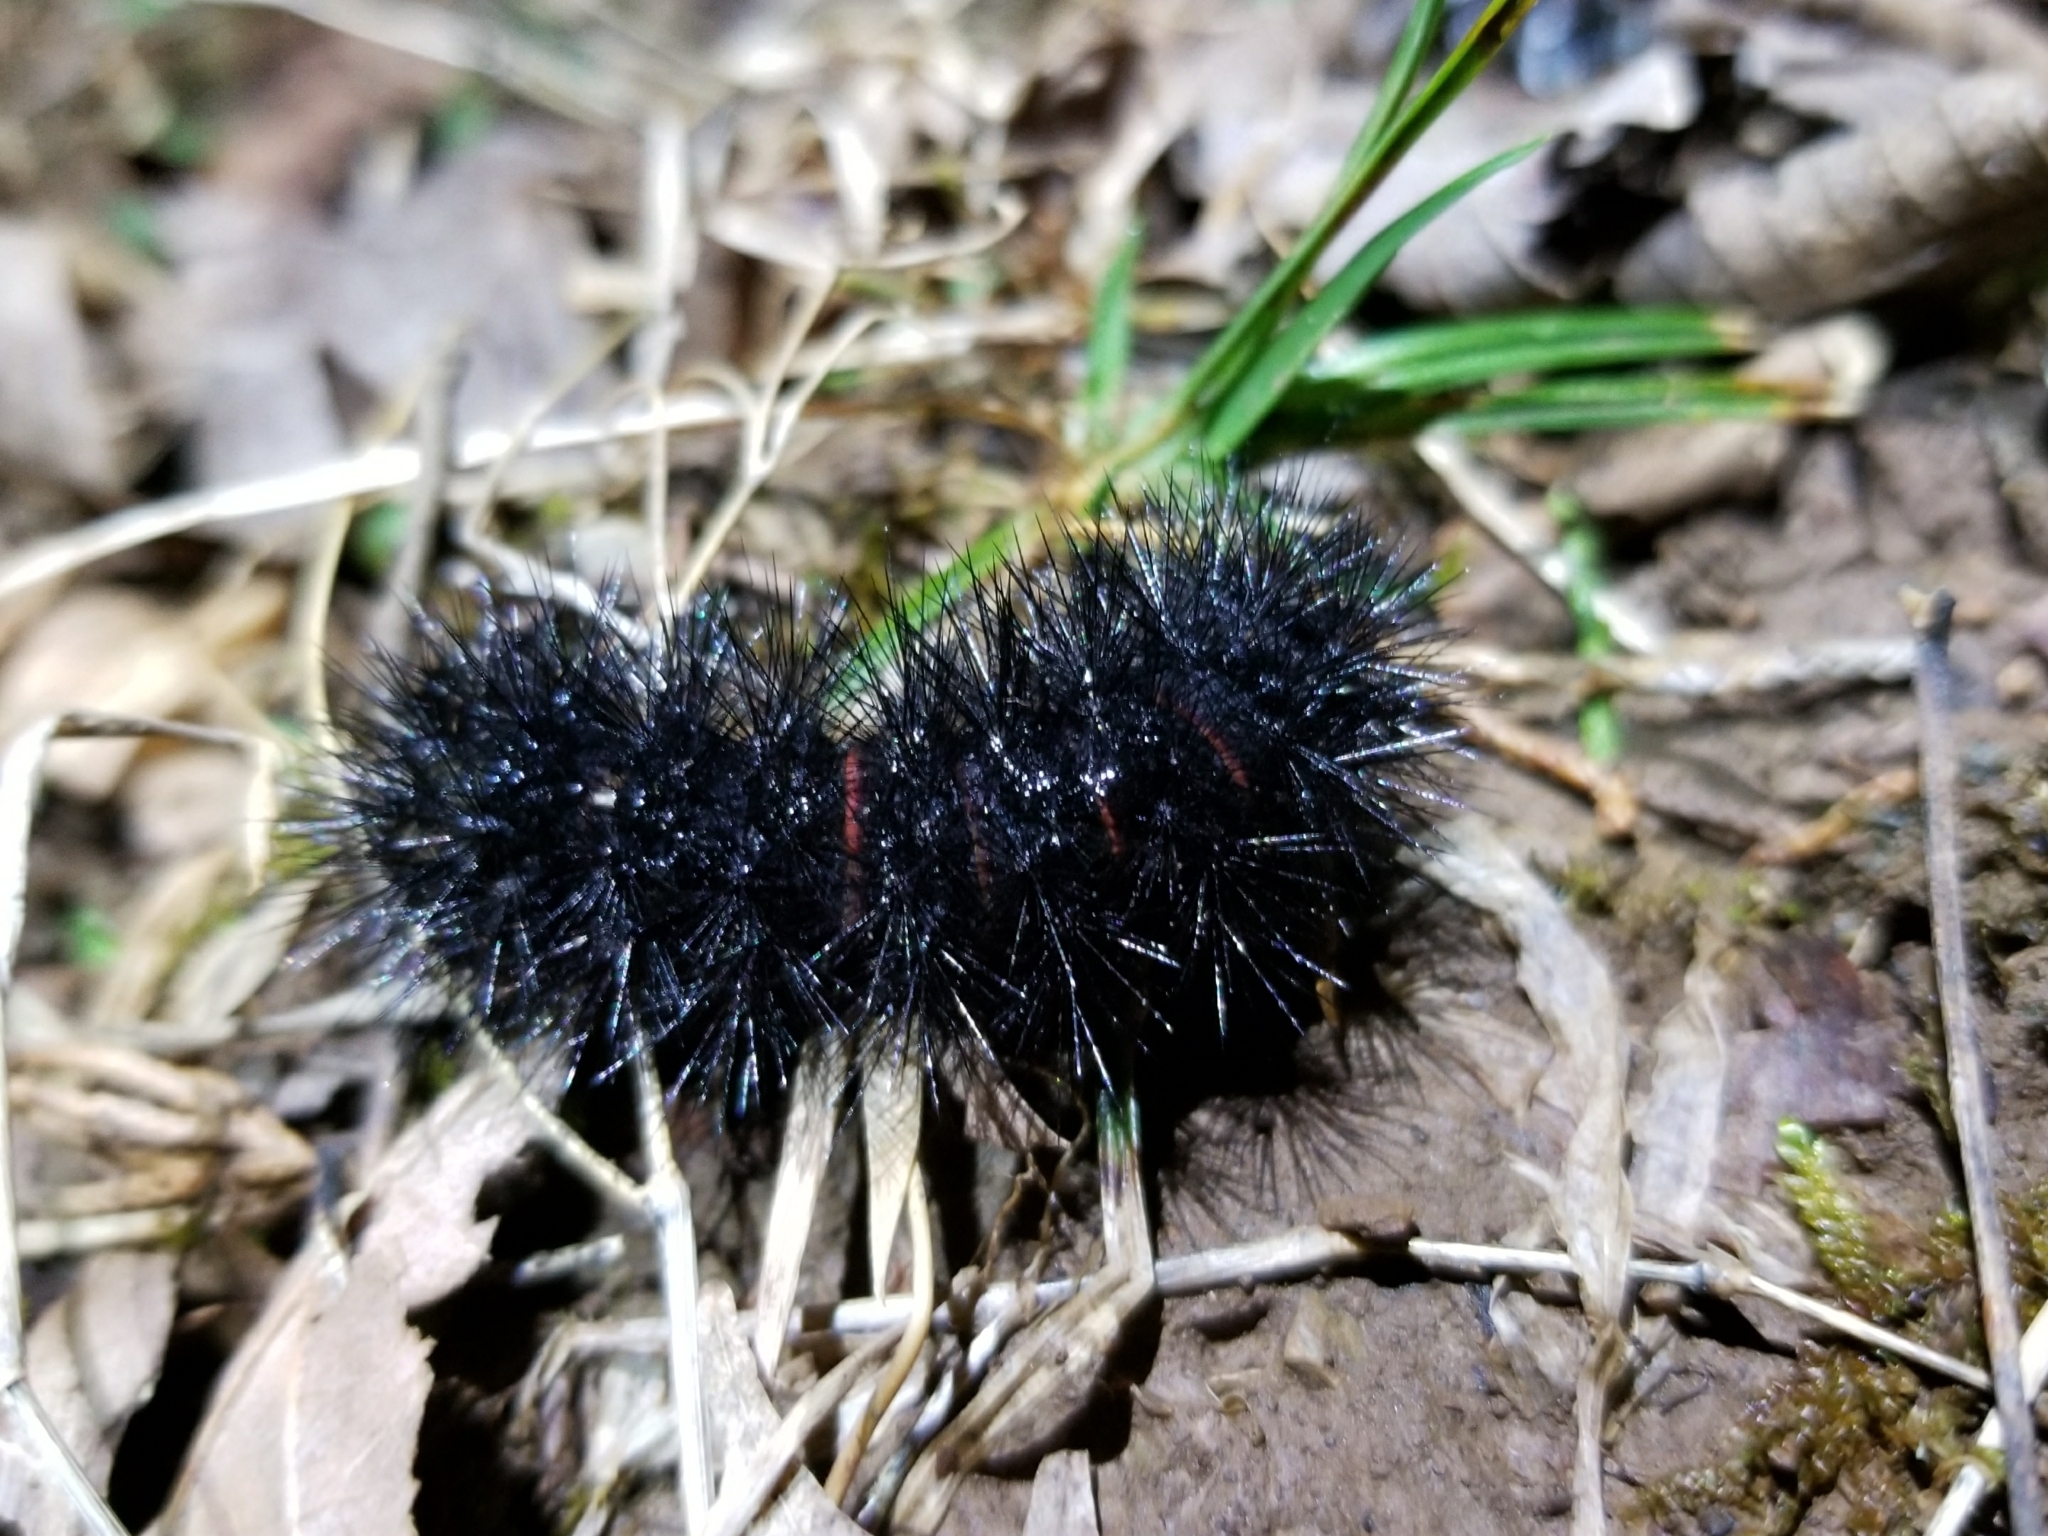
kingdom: Animalia
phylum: Arthropoda
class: Insecta
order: Lepidoptera
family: Erebidae
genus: Hypercompe
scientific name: Hypercompe scribonia
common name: Giant leopard moth
